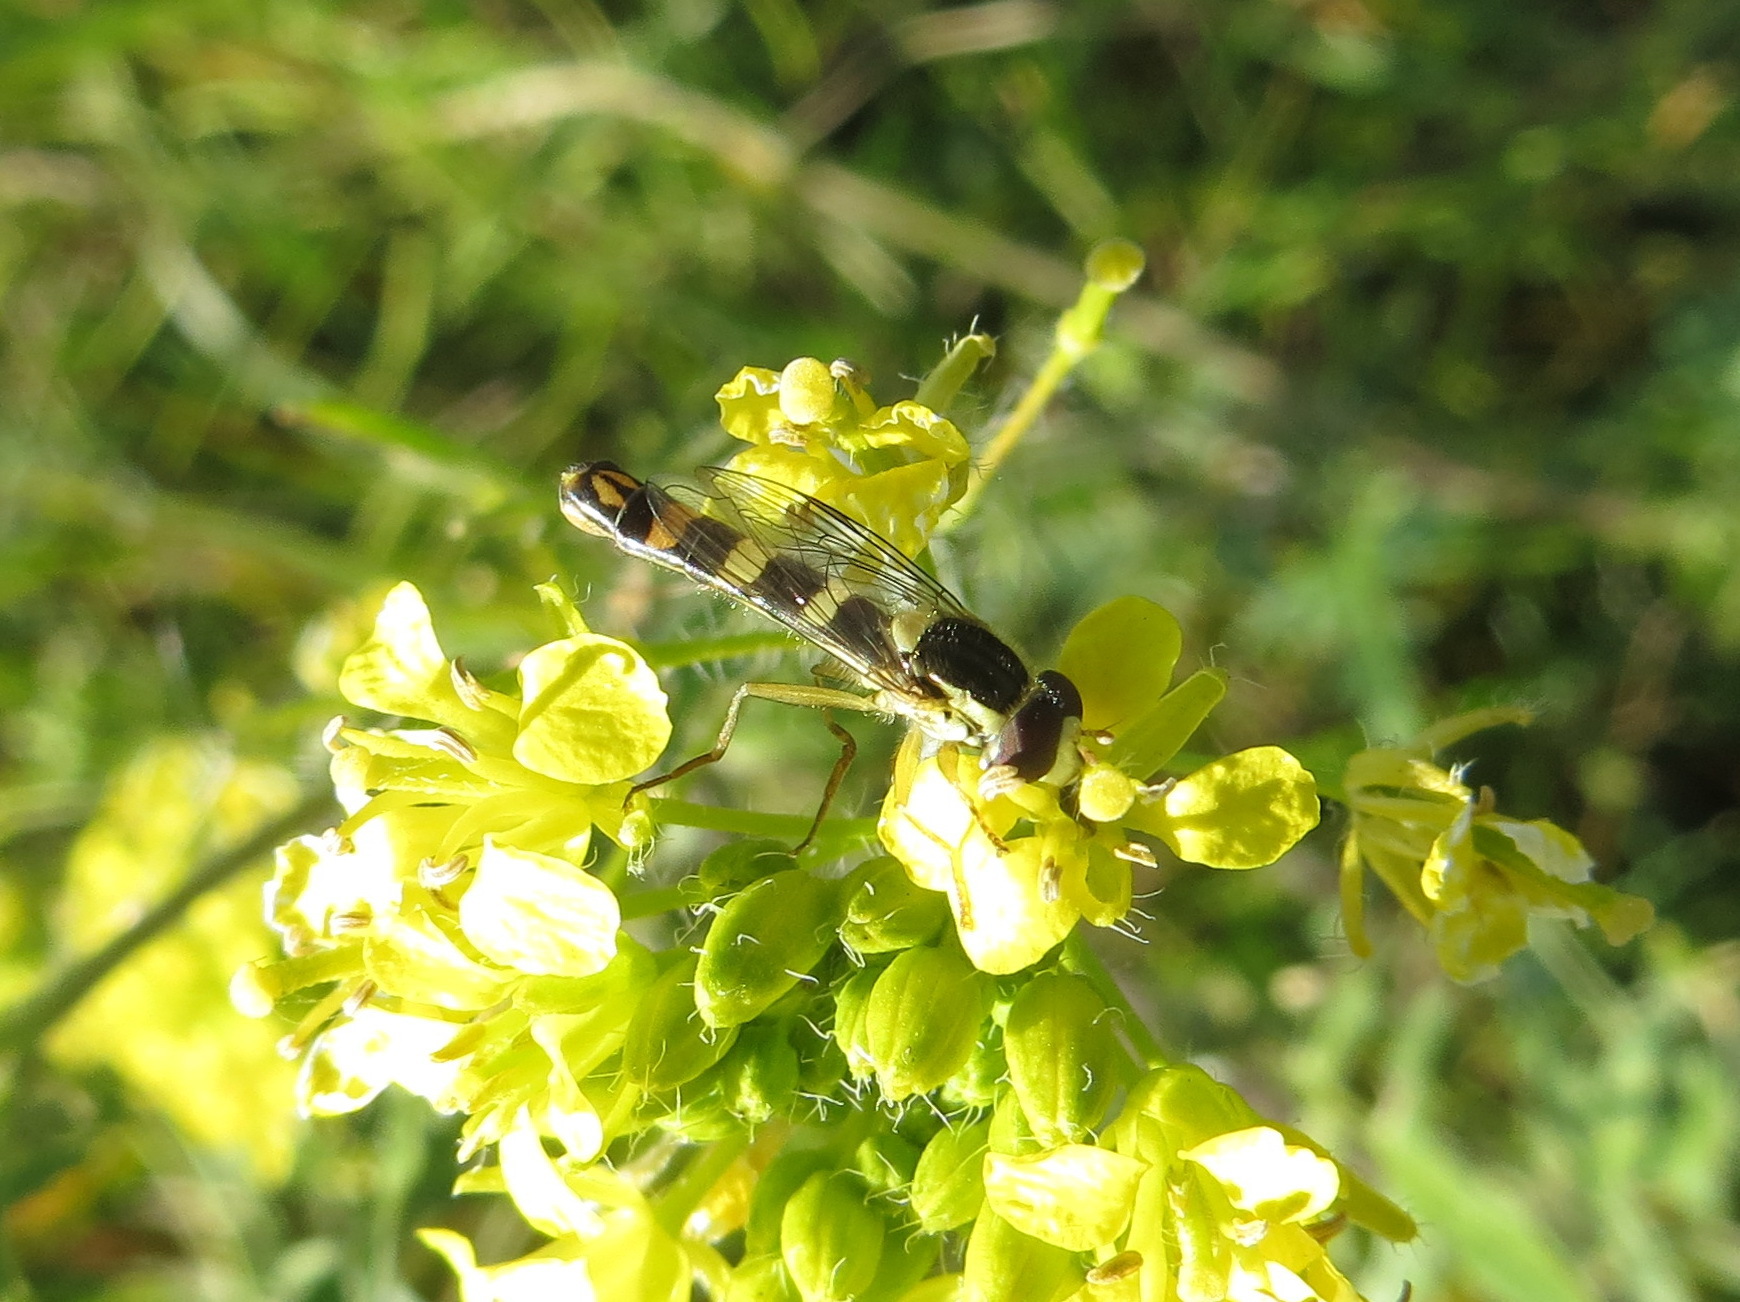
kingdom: Animalia
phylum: Arthropoda
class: Insecta
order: Diptera
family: Syrphidae
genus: Sphaerophoria
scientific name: Sphaerophoria scripta
